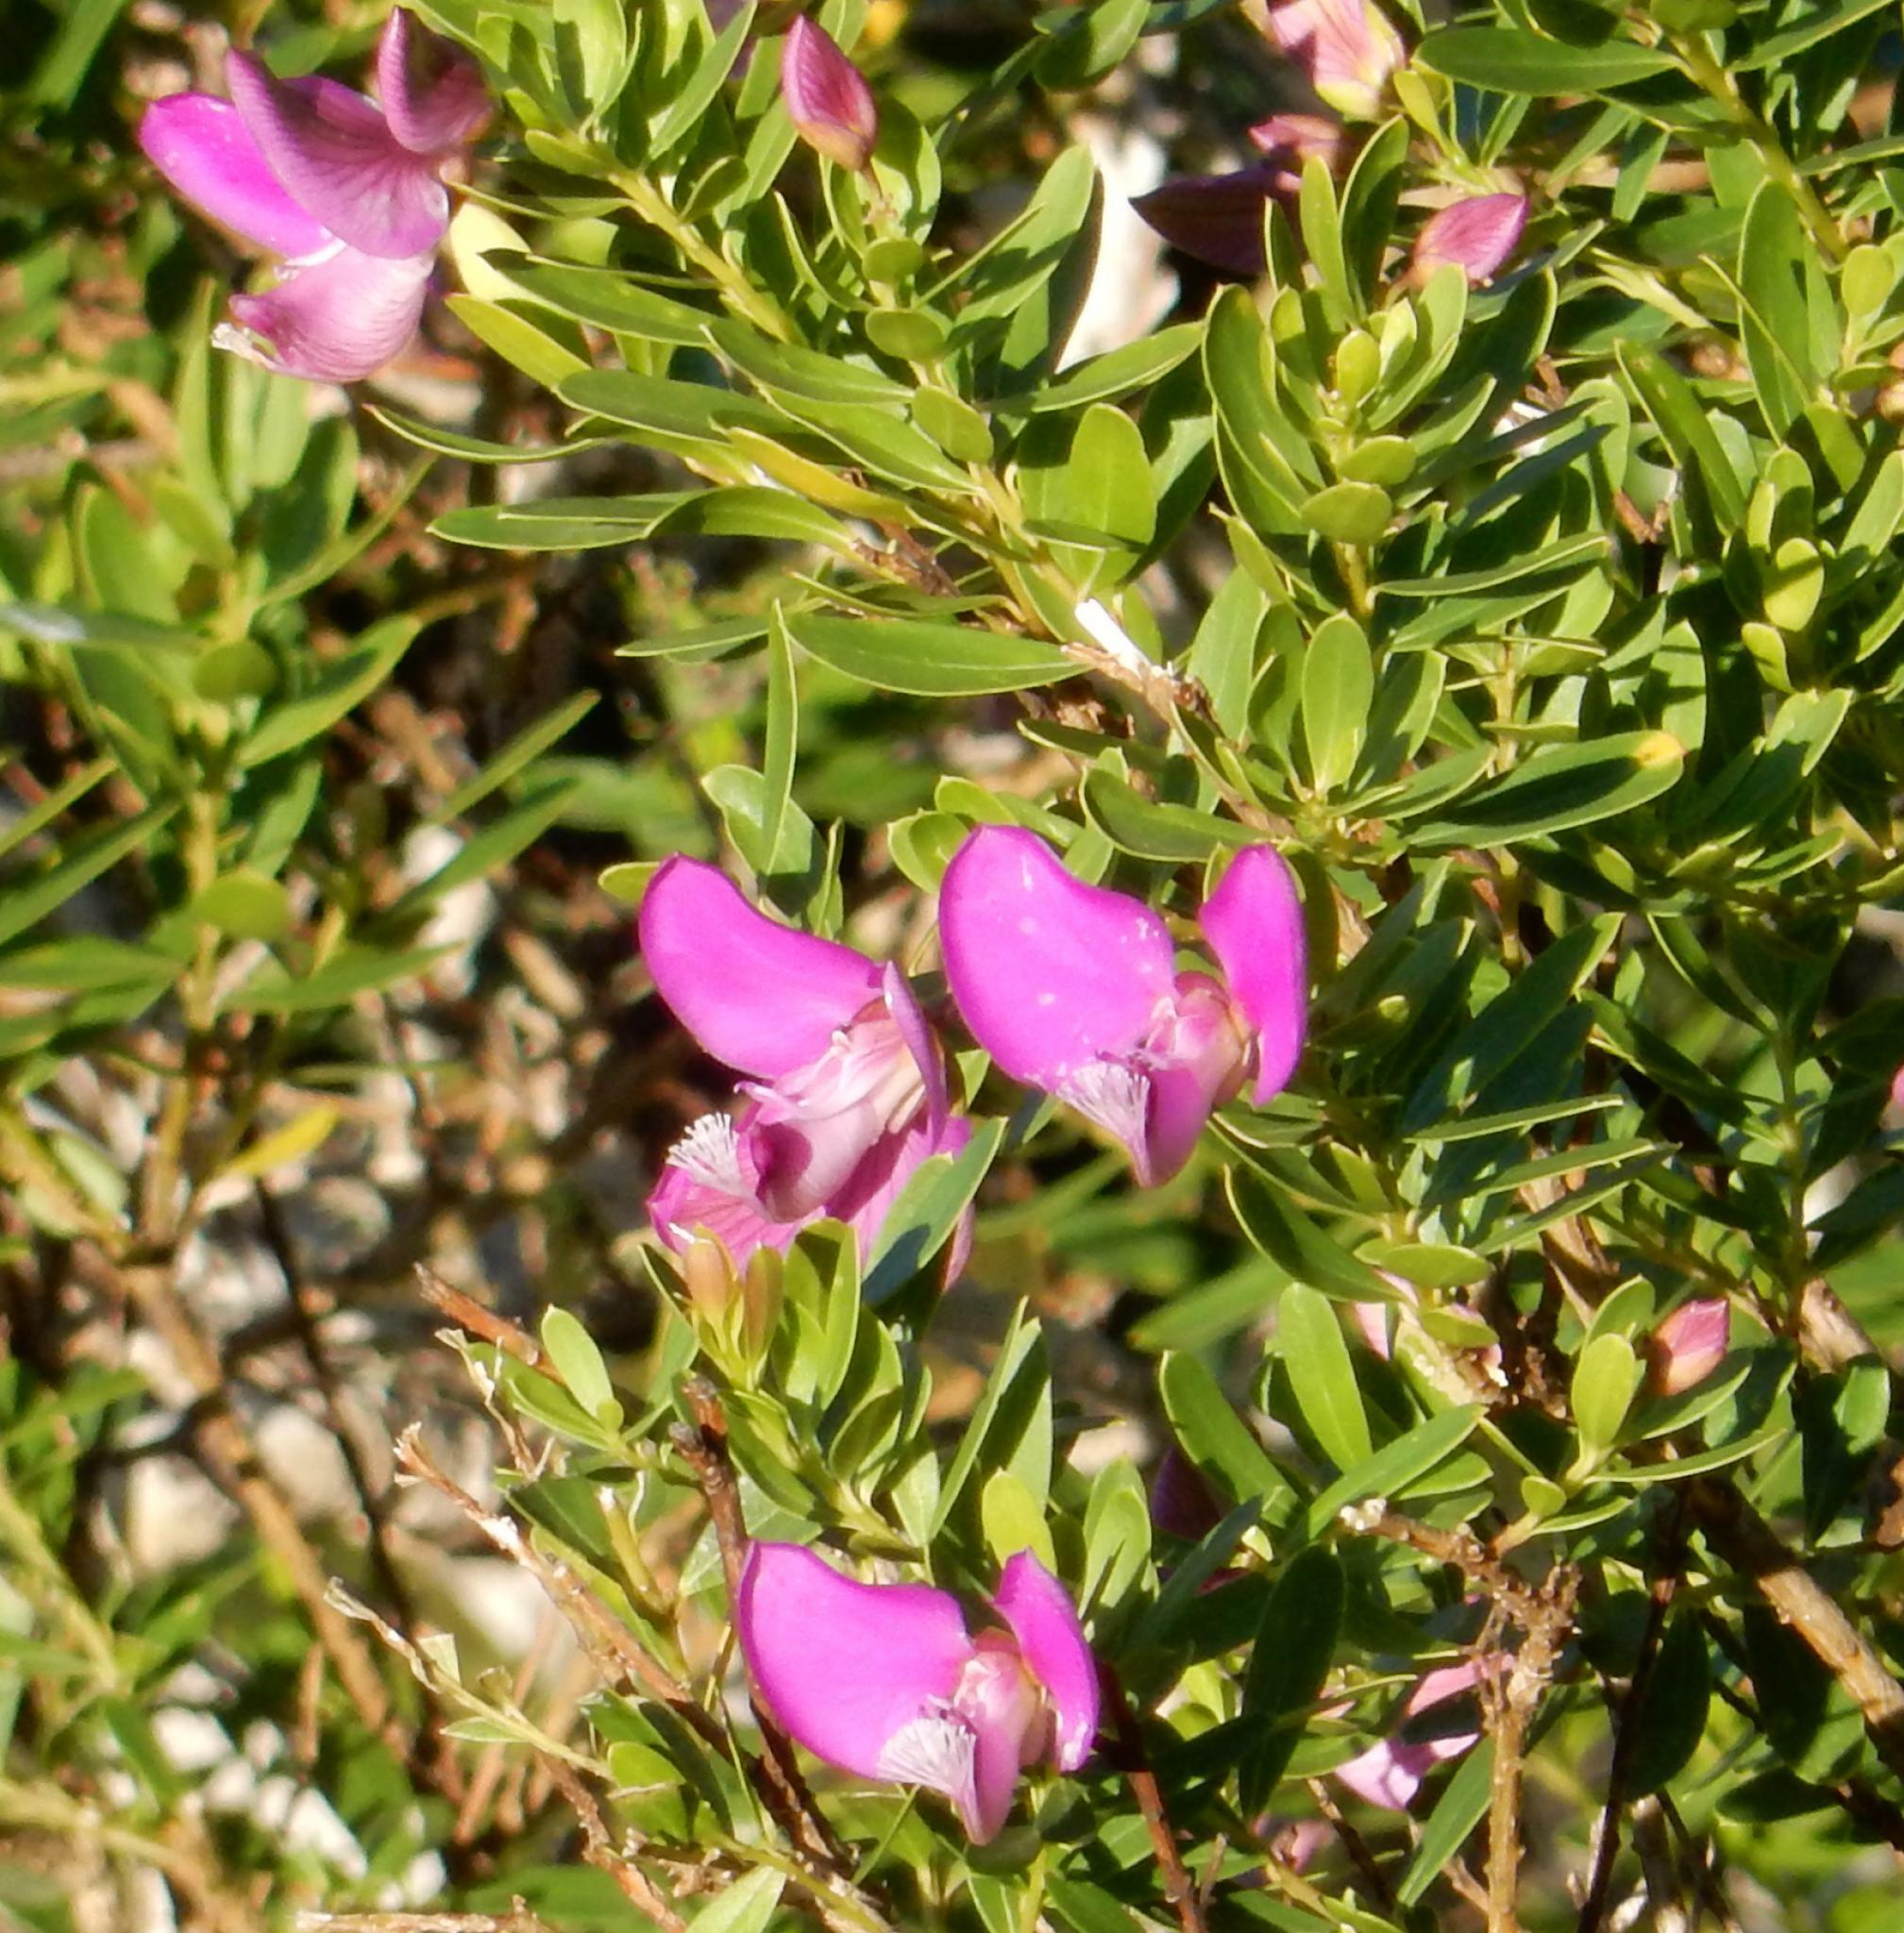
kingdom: Plantae
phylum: Tracheophyta
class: Magnoliopsida
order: Fabales
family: Polygalaceae
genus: Polygala
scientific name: Polygala myrtifolia
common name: Myrtle-leaf milkwort
